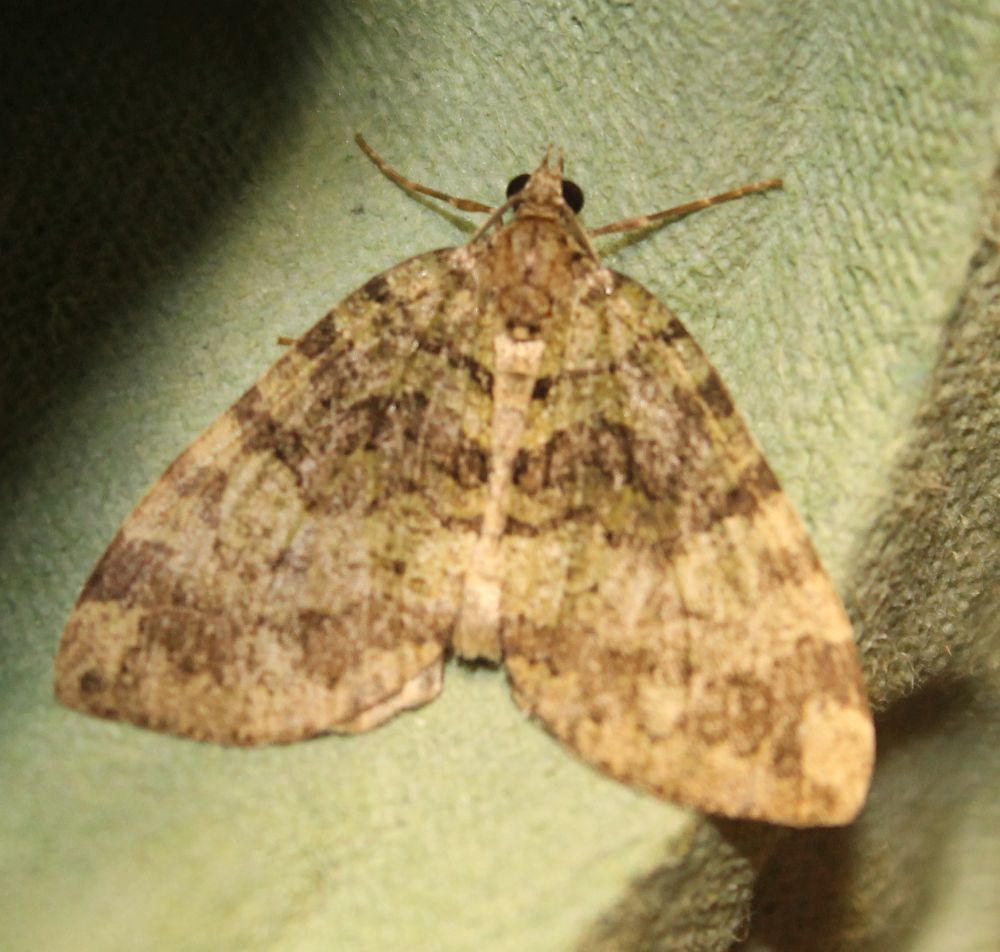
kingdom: Animalia
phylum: Arthropoda
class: Insecta
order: Lepidoptera
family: Geometridae
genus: Hydriomena
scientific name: Hydriomena furcata
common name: July highflyer
